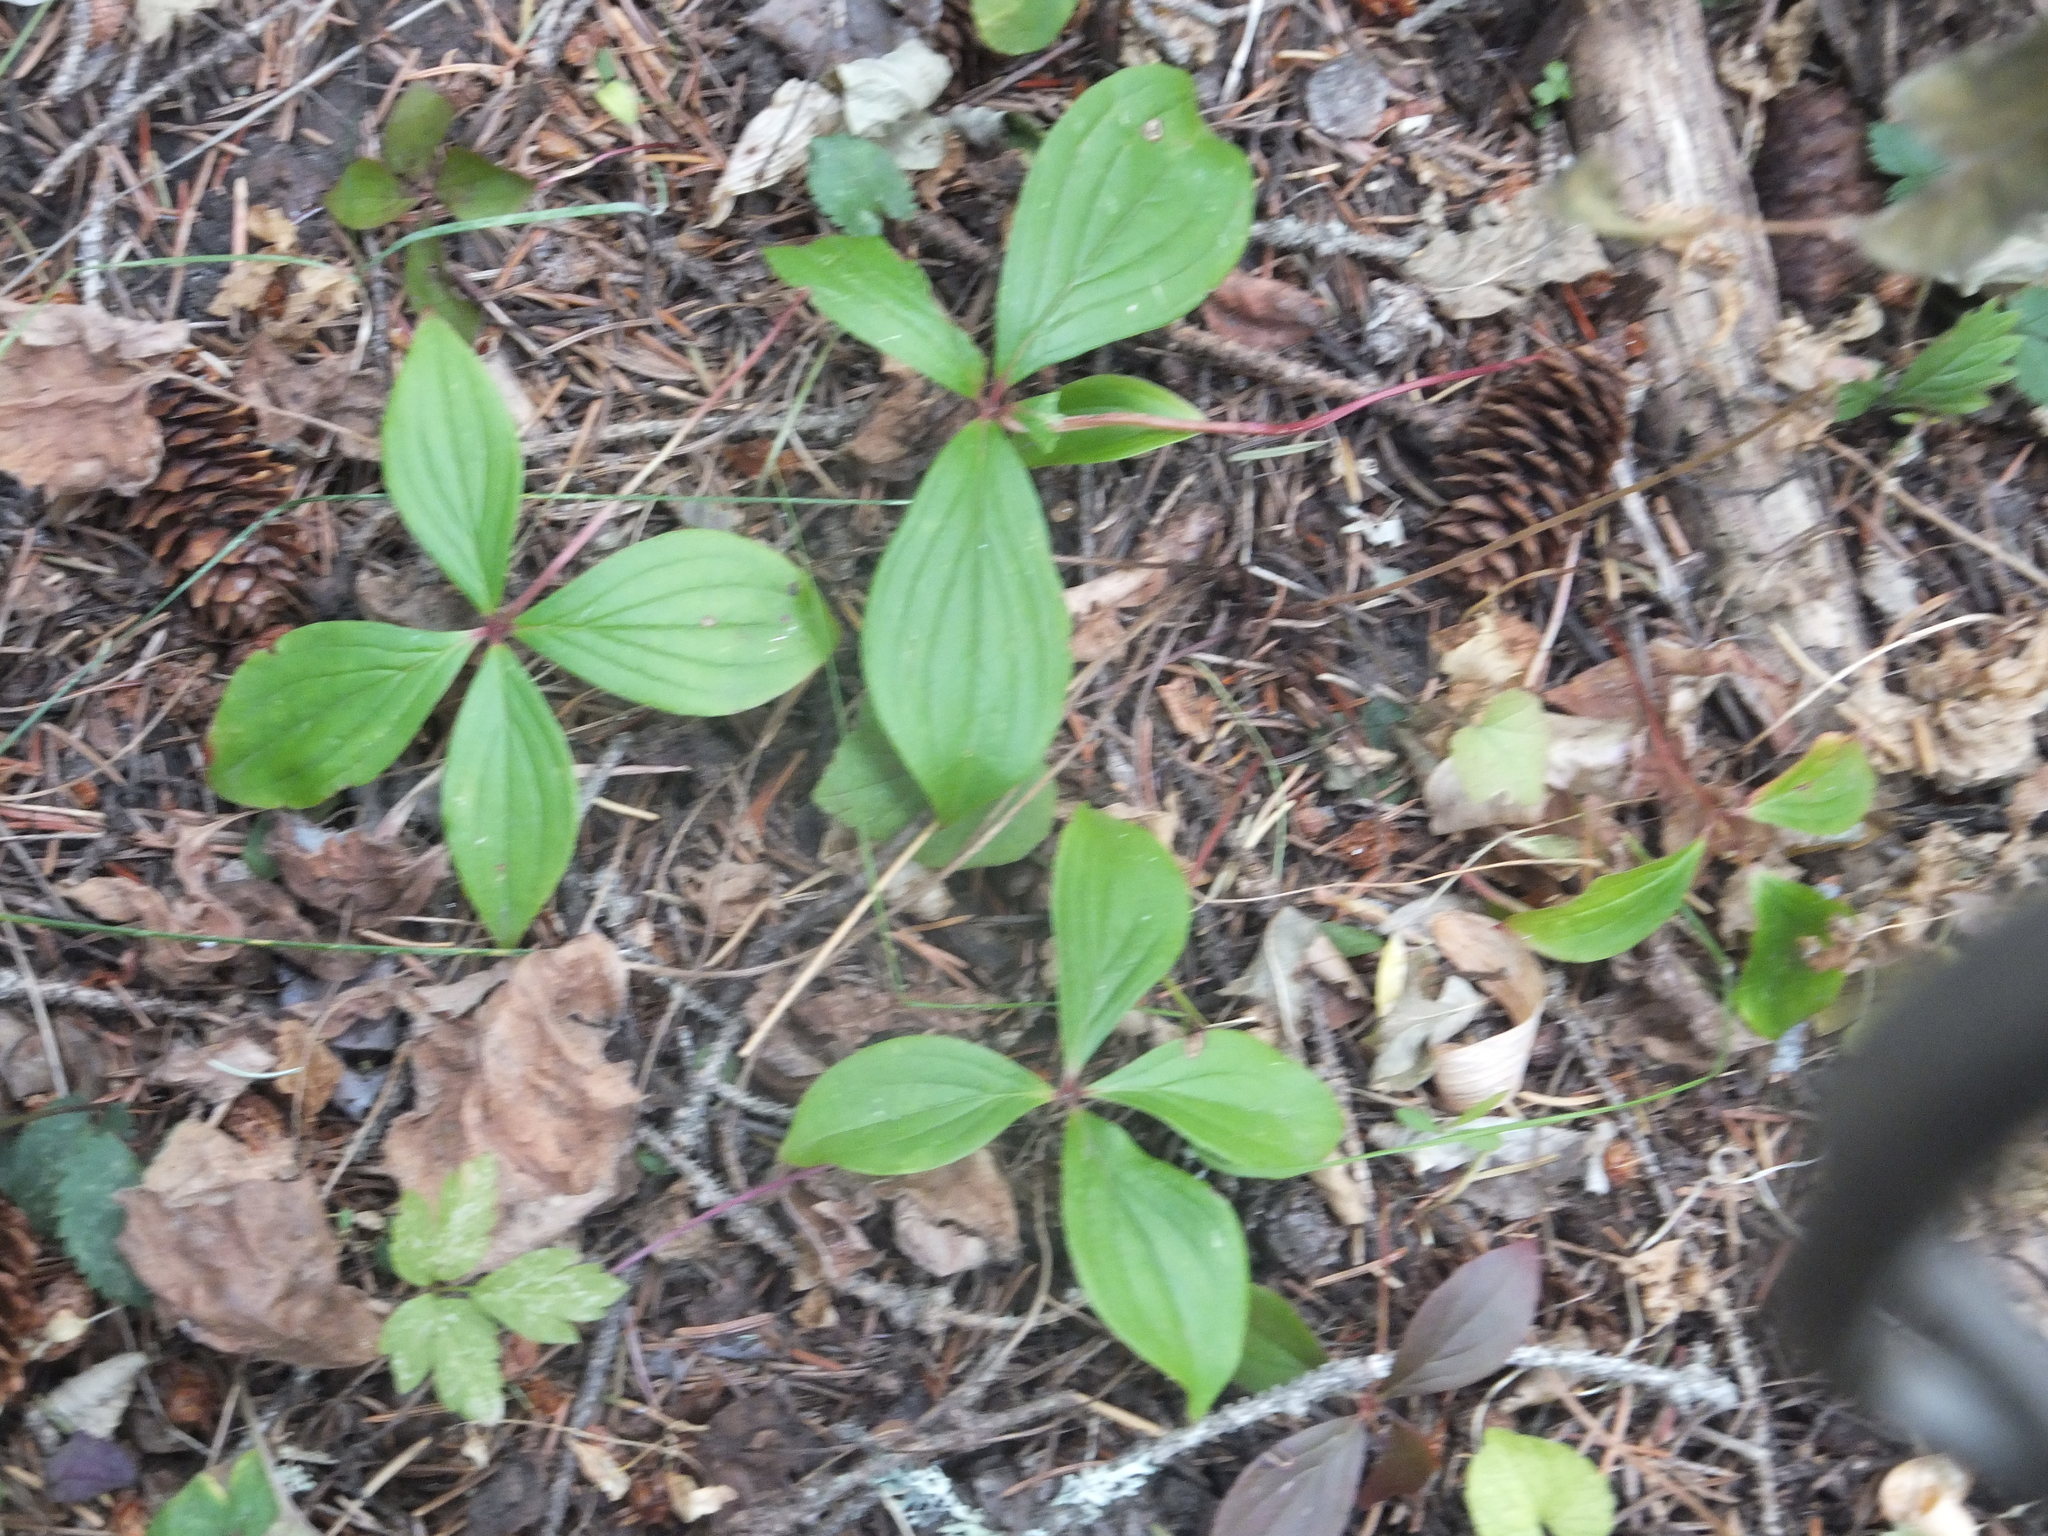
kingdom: Plantae
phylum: Tracheophyta
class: Magnoliopsida
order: Cornales
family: Cornaceae
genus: Cornus
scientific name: Cornus unalaschkensis
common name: Alaska bunchberry
